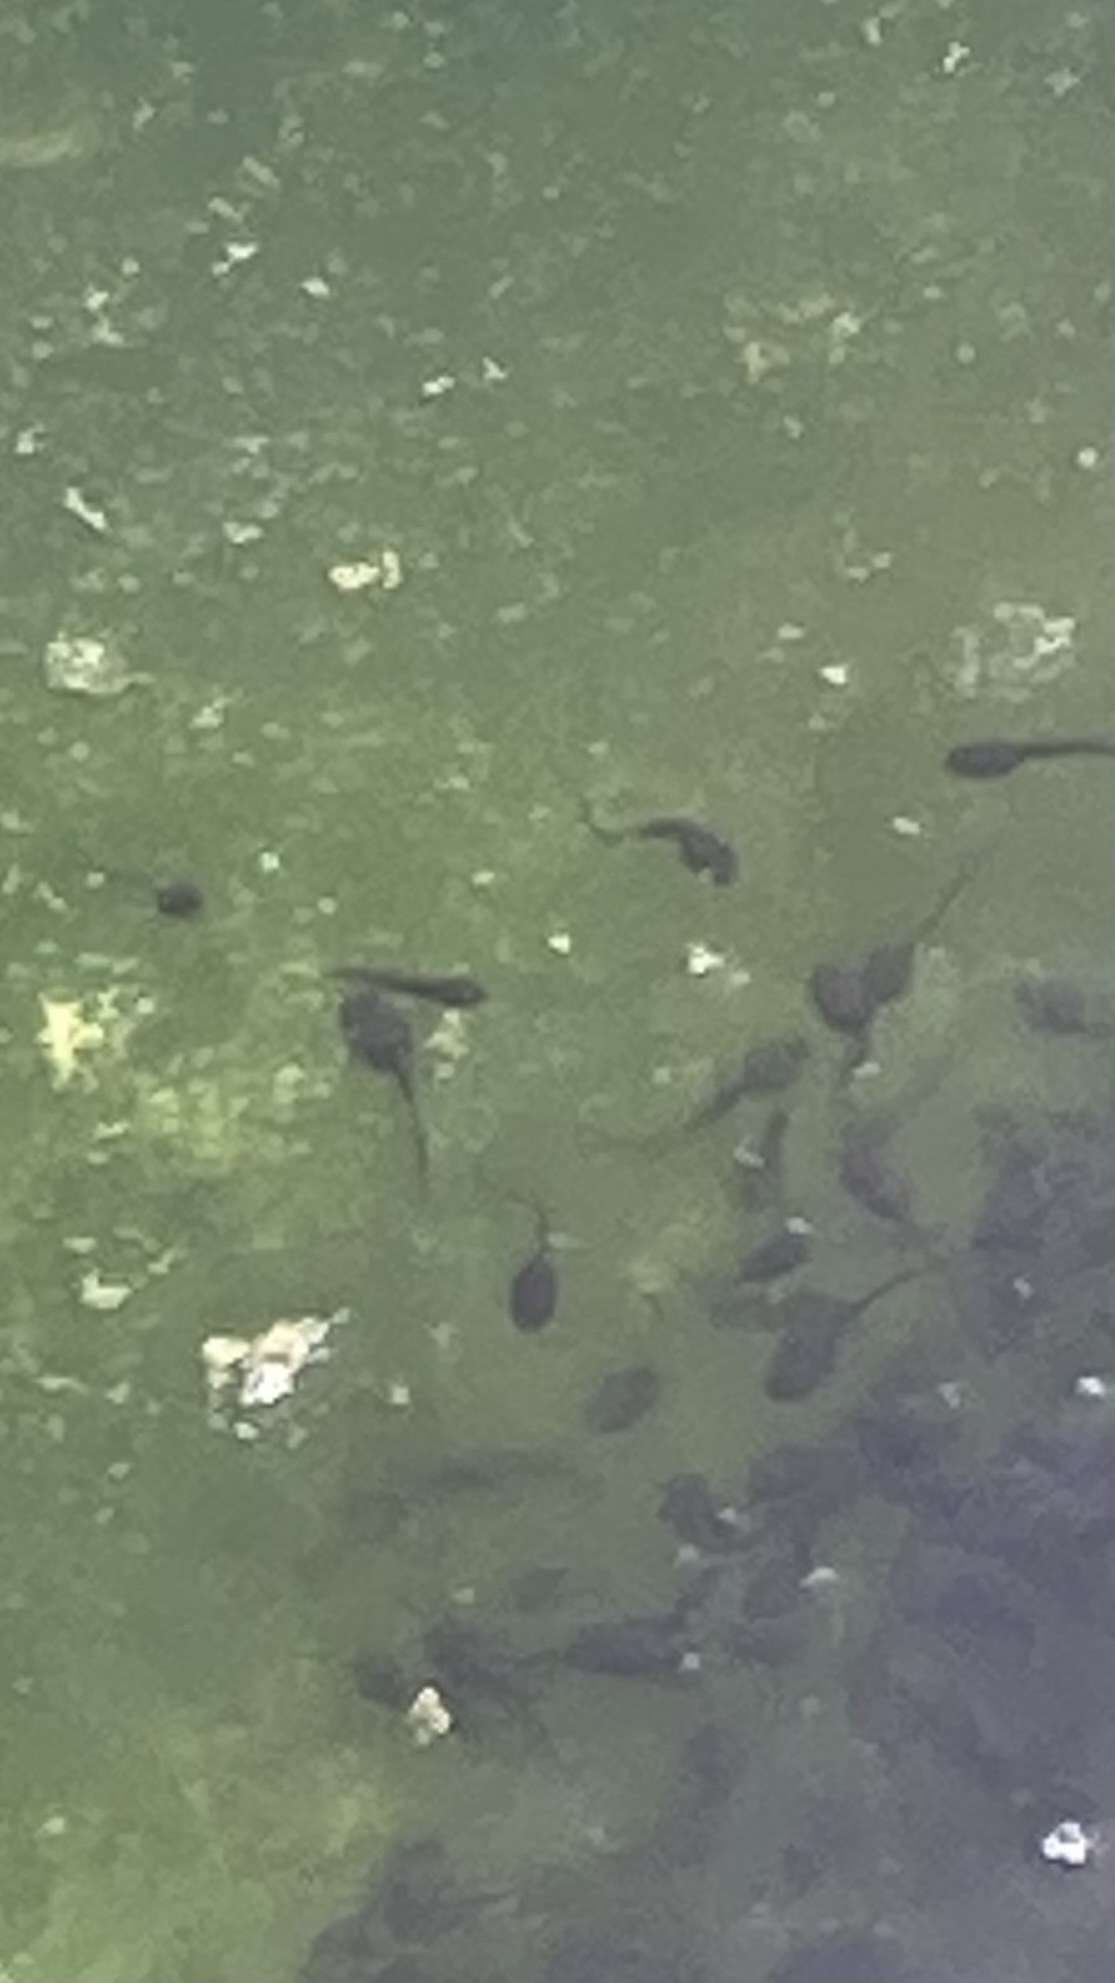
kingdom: Animalia
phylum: Chordata
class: Amphibia
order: Anura
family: Ranidae
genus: Rana
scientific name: Rana temporaria
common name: Common frog
